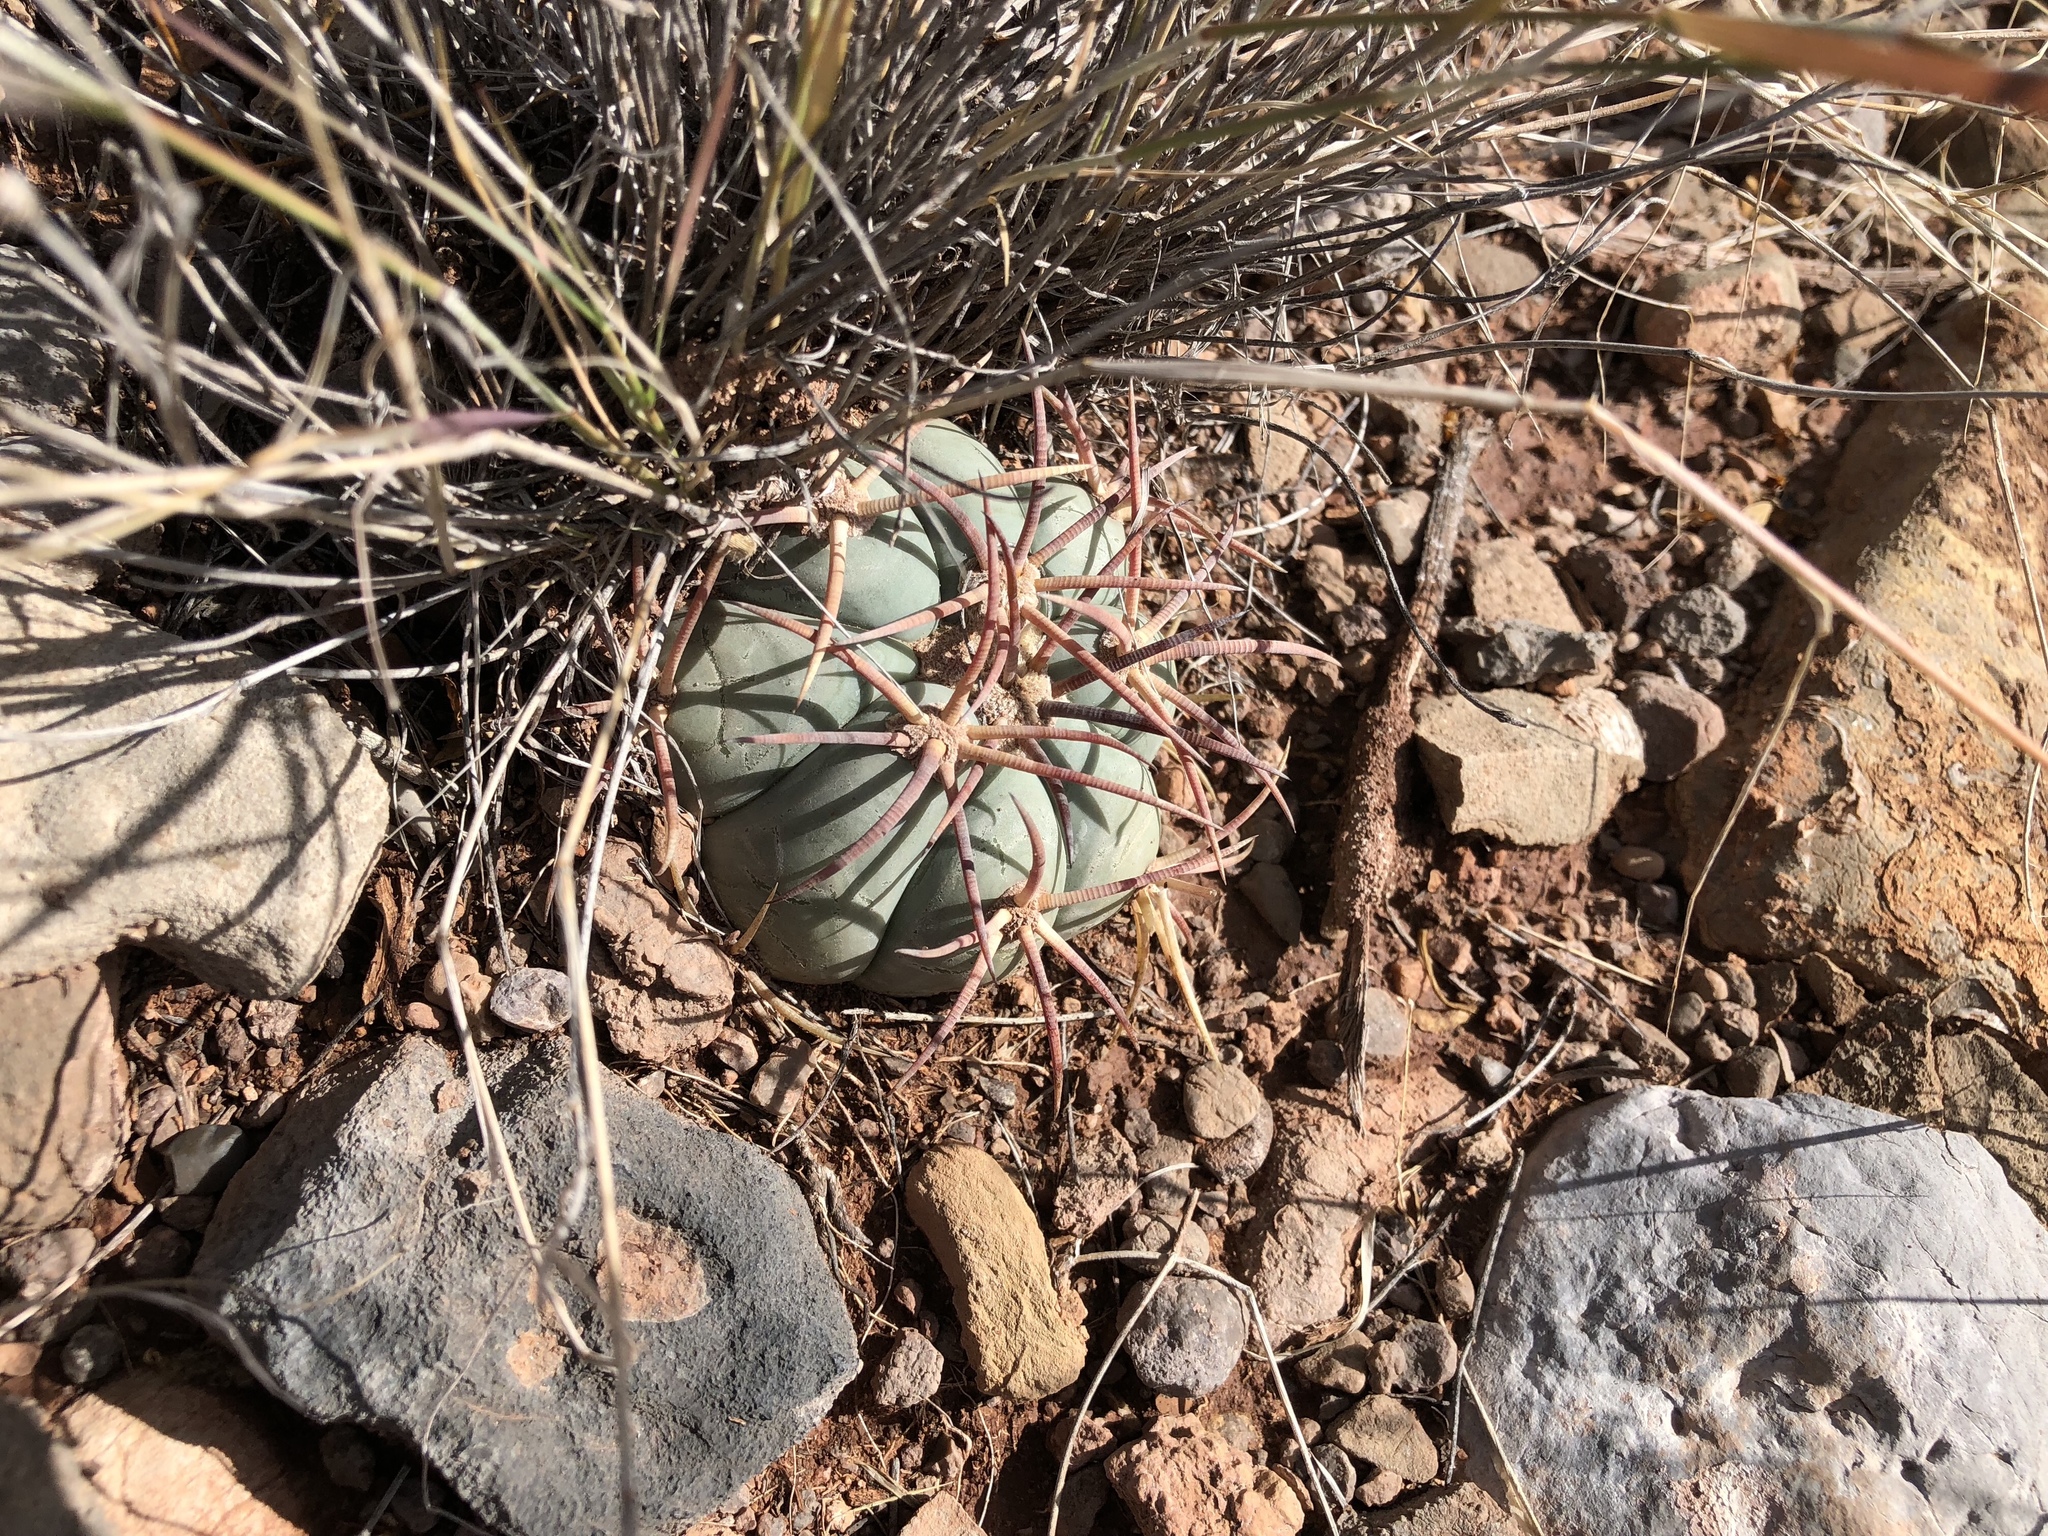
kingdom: Plantae
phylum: Tracheophyta
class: Magnoliopsida
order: Caryophyllales
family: Cactaceae
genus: Echinocactus
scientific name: Echinocactus horizonthalonius
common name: Devilshead
